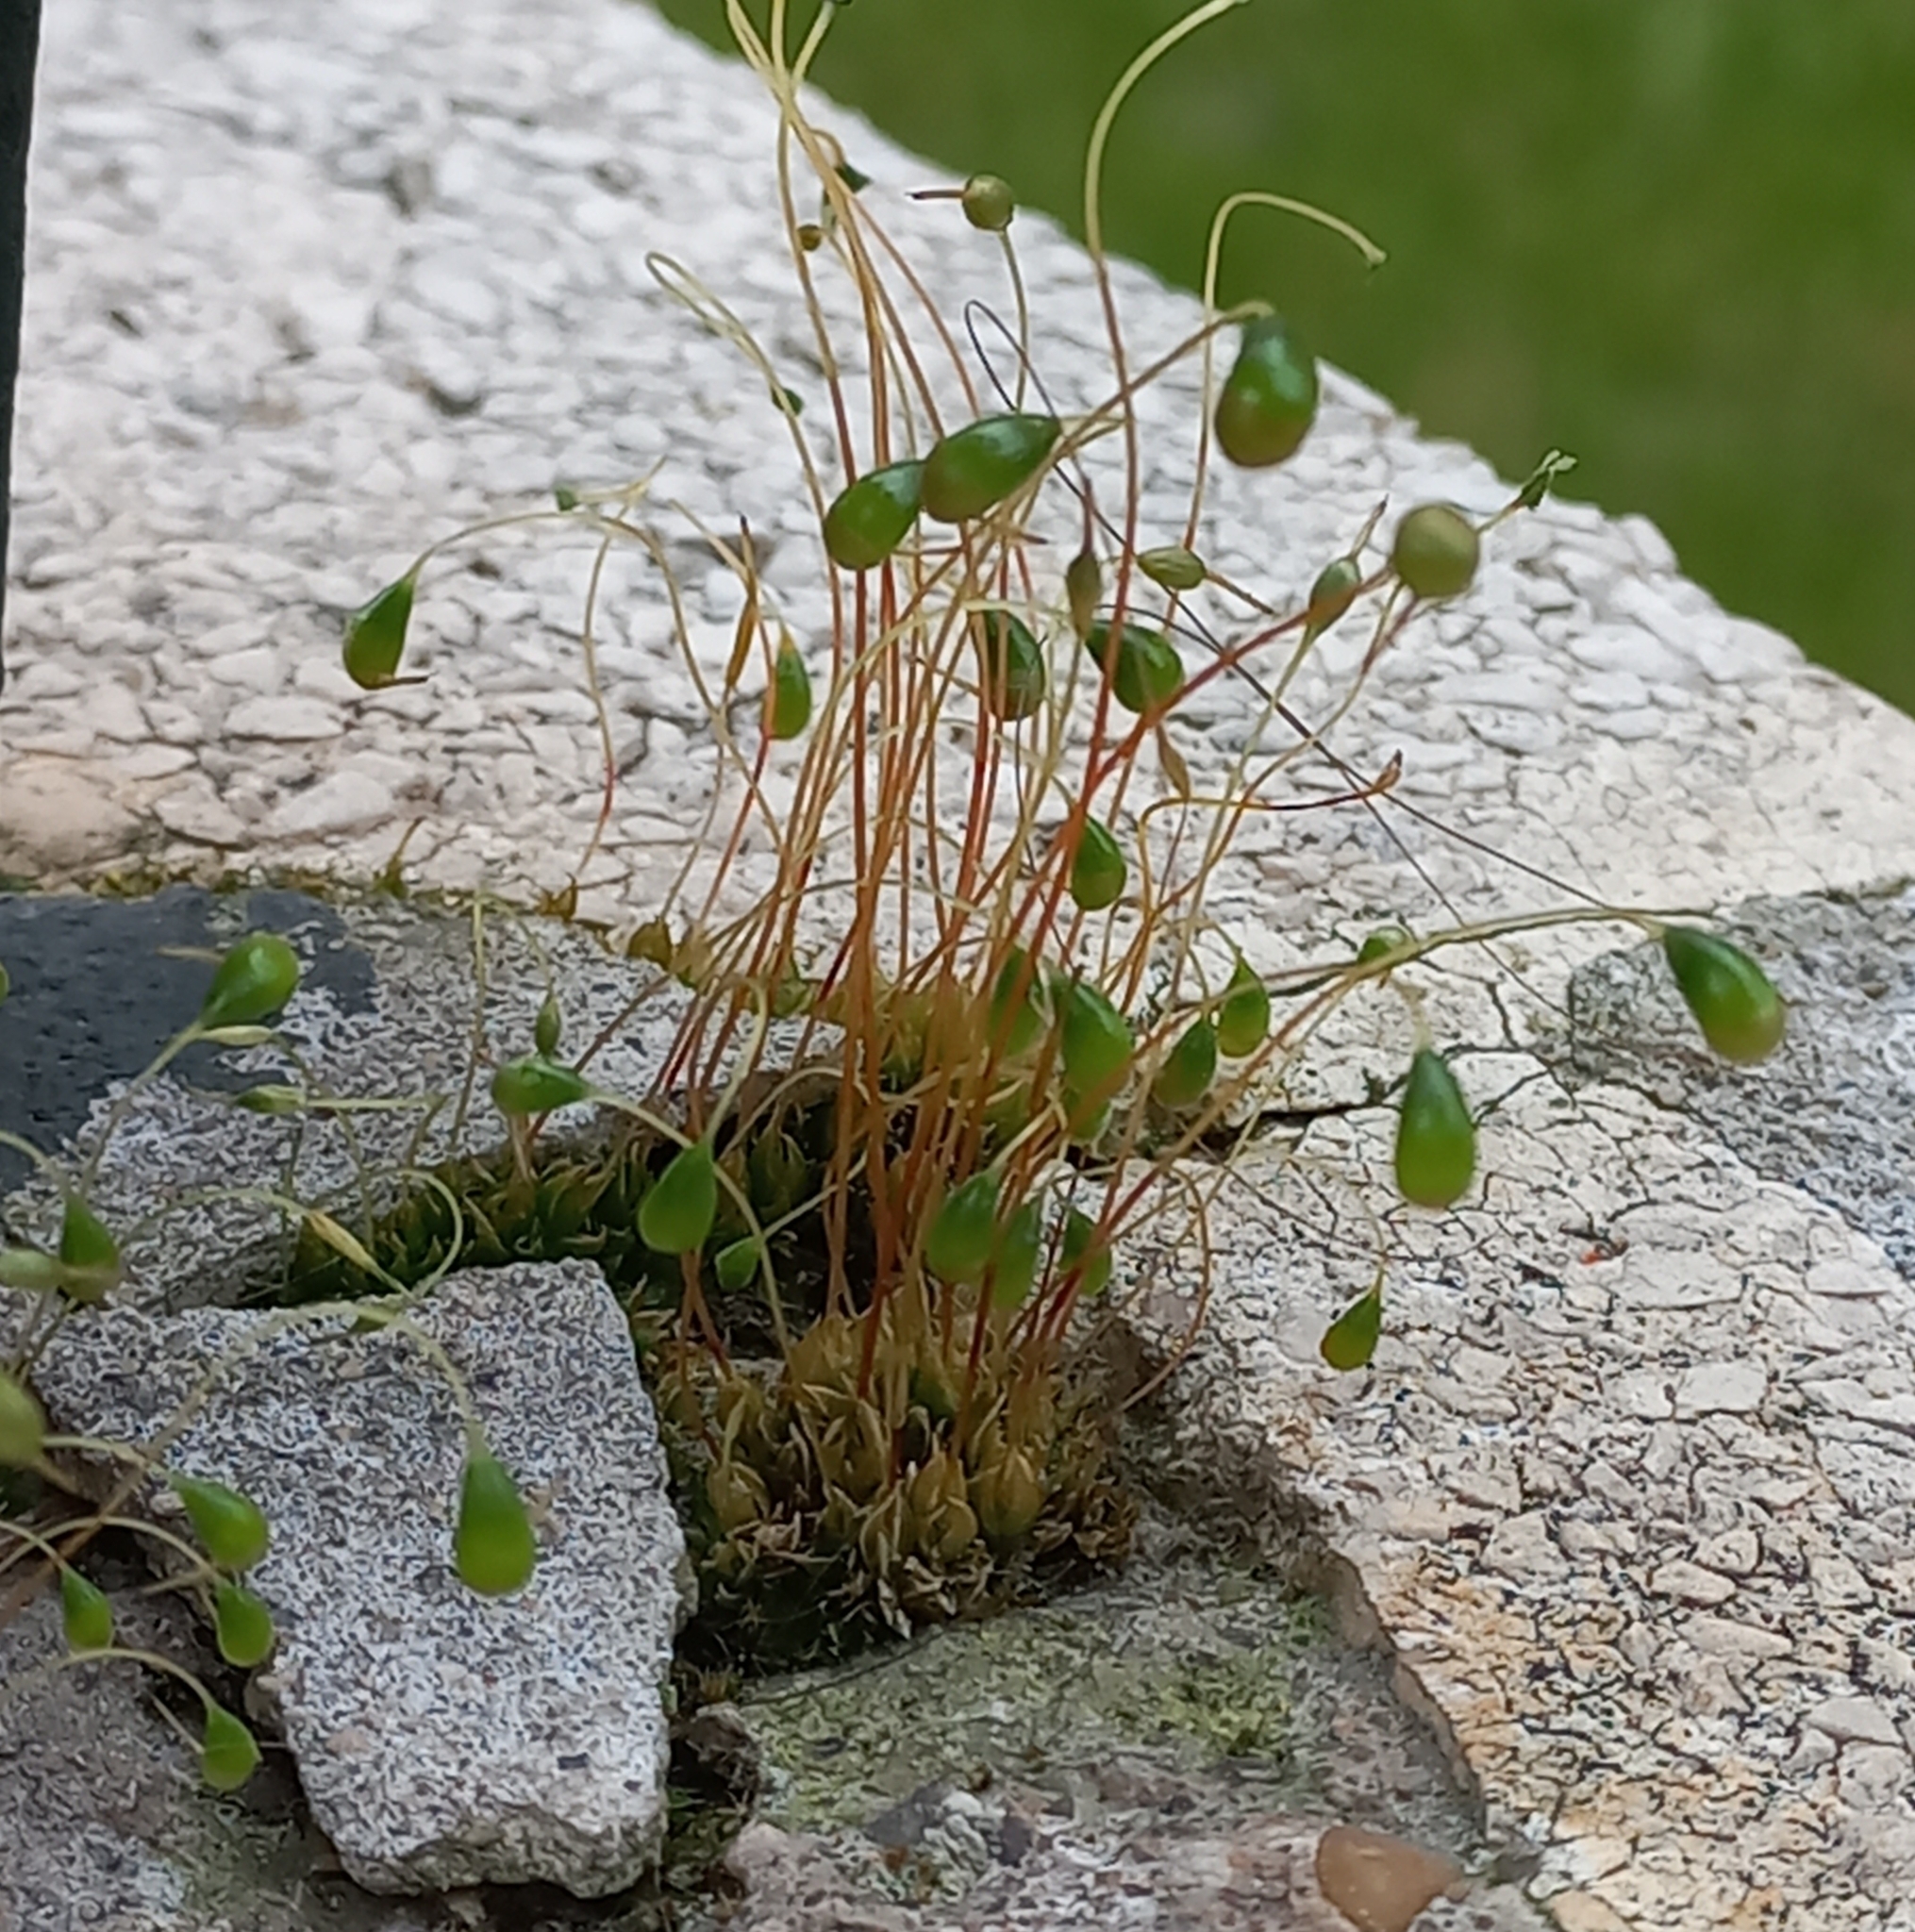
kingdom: Plantae
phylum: Bryophyta
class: Bryopsida
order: Funariales
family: Funariaceae
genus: Funaria
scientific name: Funaria hygrometrica
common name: Common cord moss
